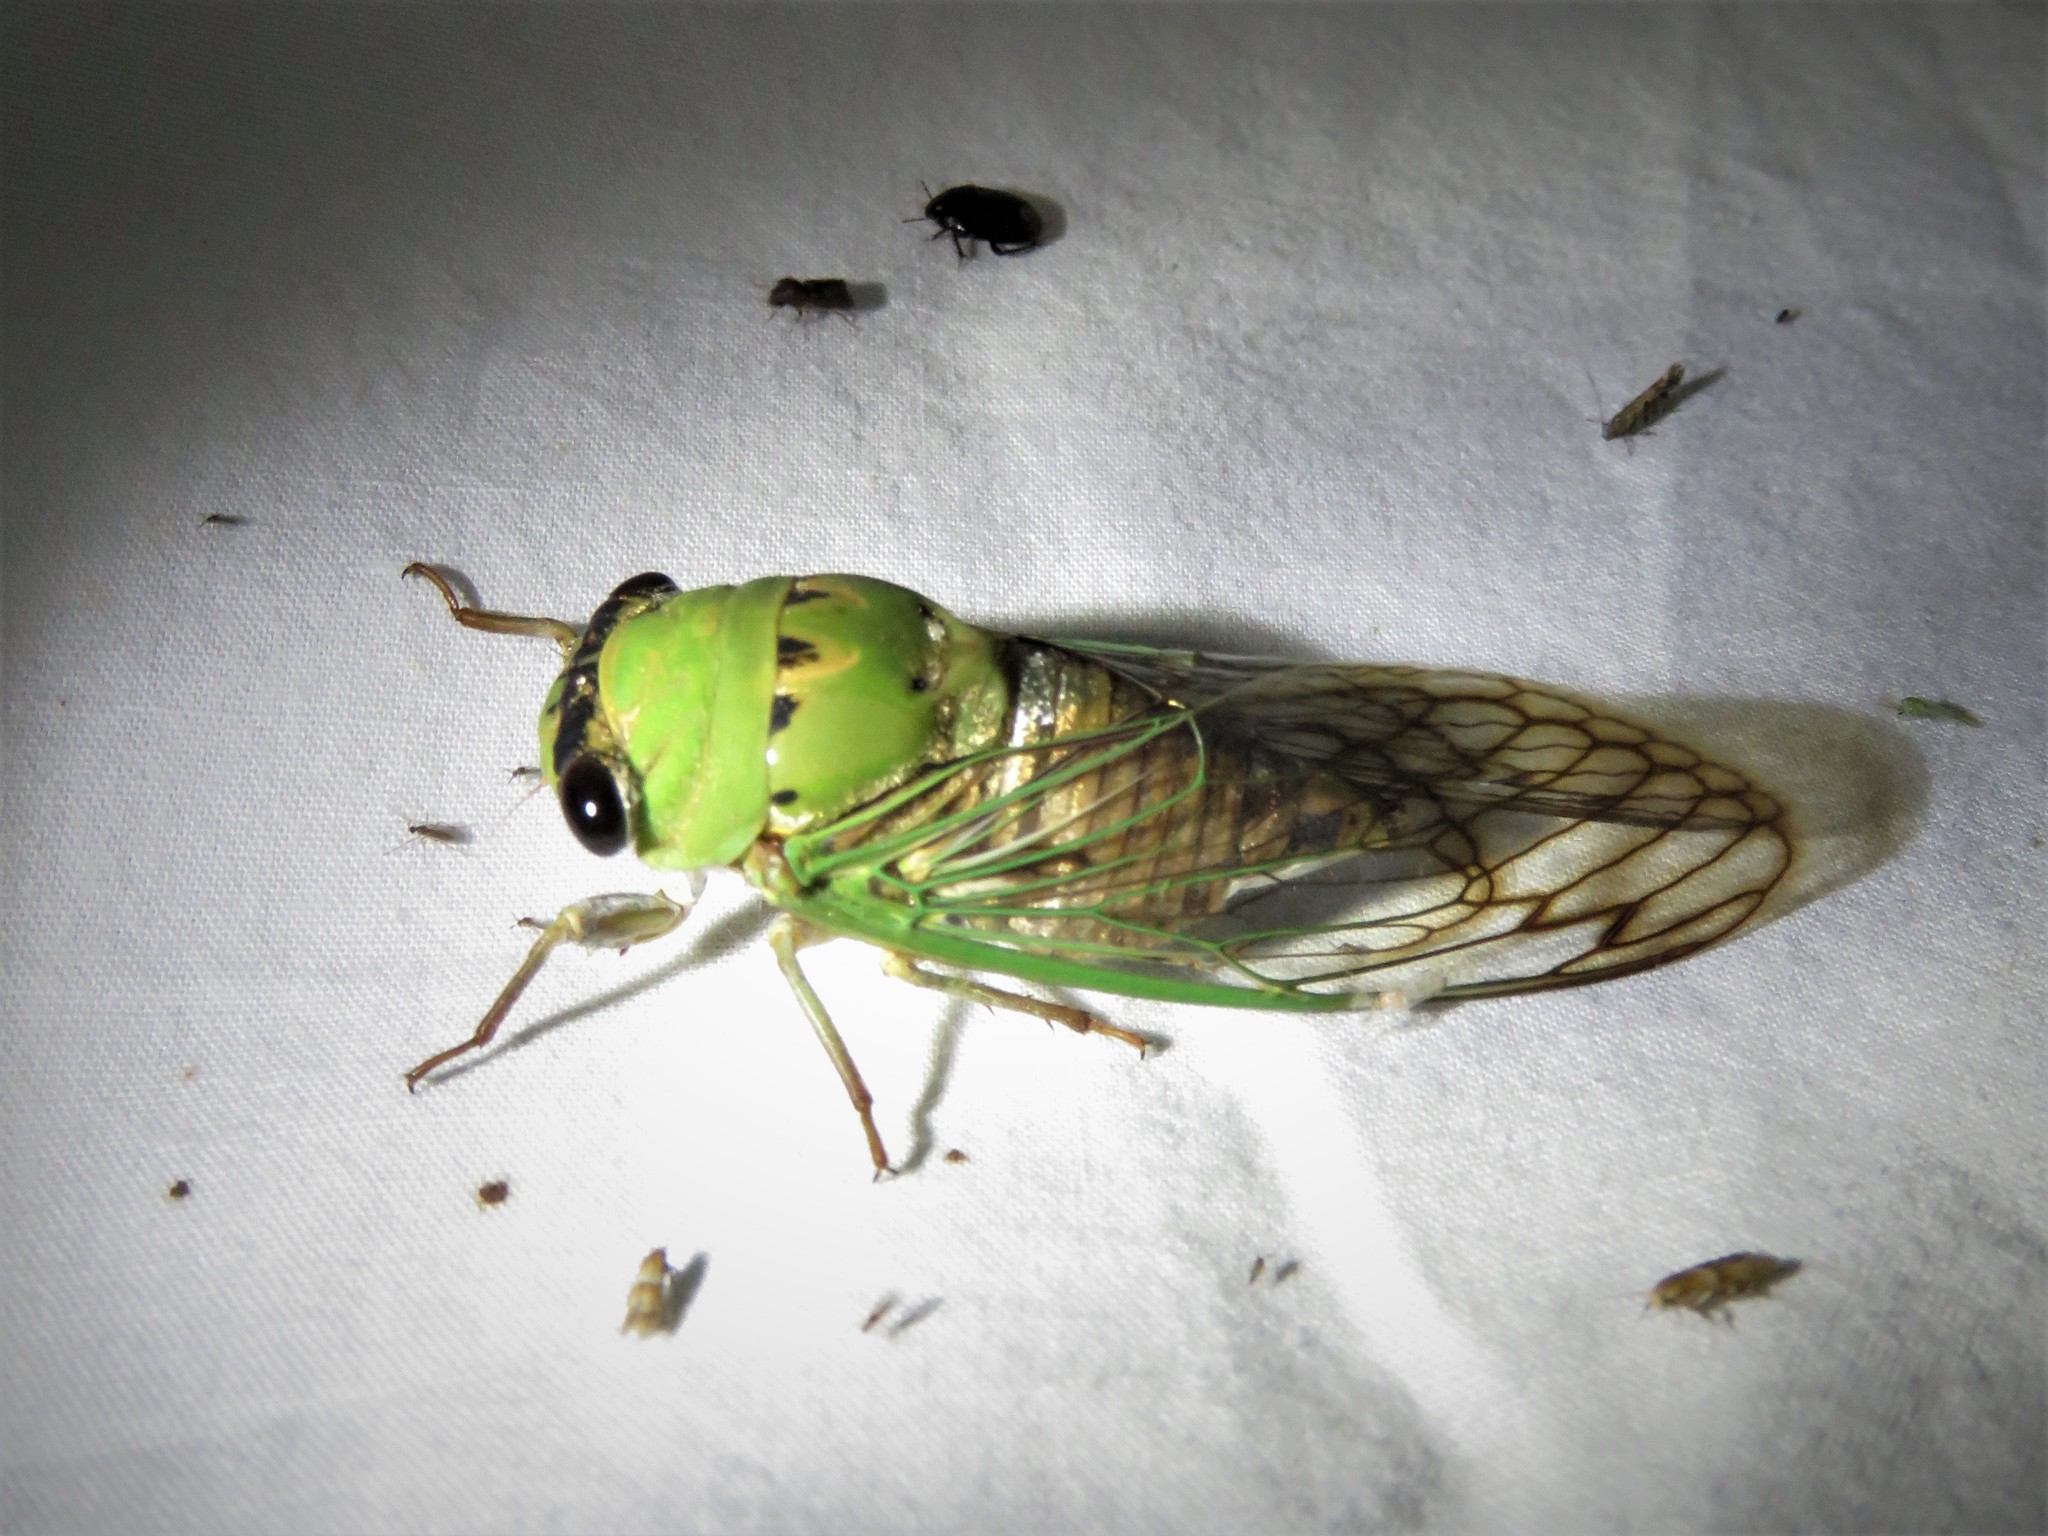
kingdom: Animalia
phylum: Arthropoda
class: Insecta
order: Hemiptera
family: Cicadidae
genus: Neotibicen
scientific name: Neotibicen superbus
